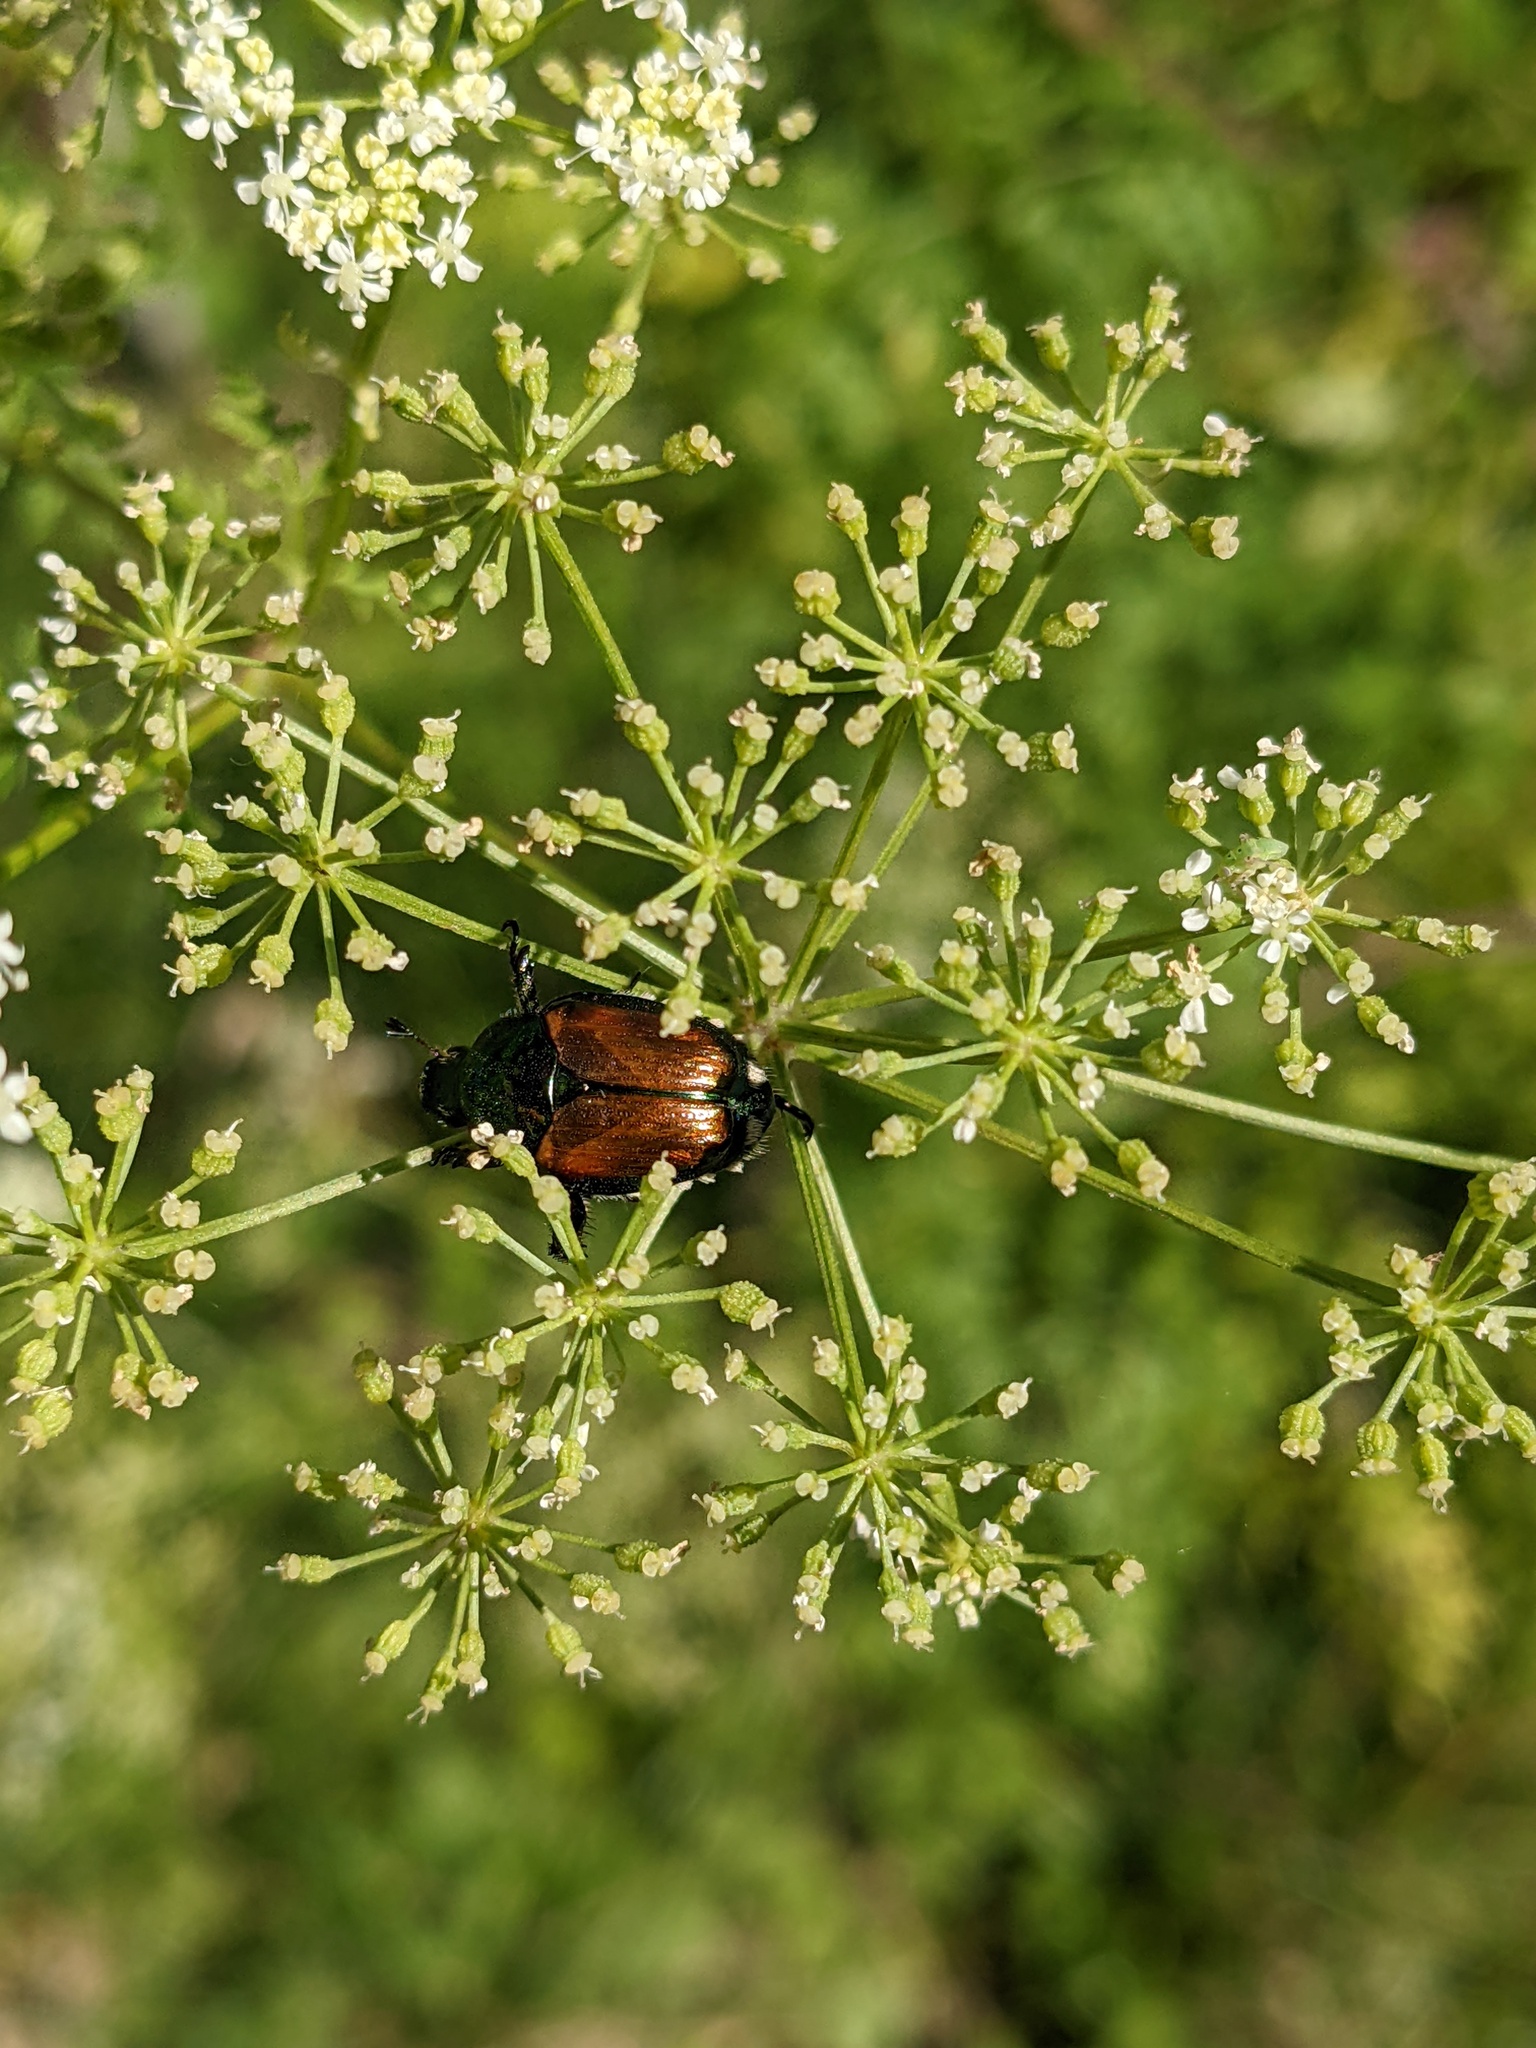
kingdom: Animalia
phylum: Arthropoda
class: Insecta
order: Coleoptera
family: Scarabaeidae
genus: Popillia
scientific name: Popillia japonica
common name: Japanese beetle
